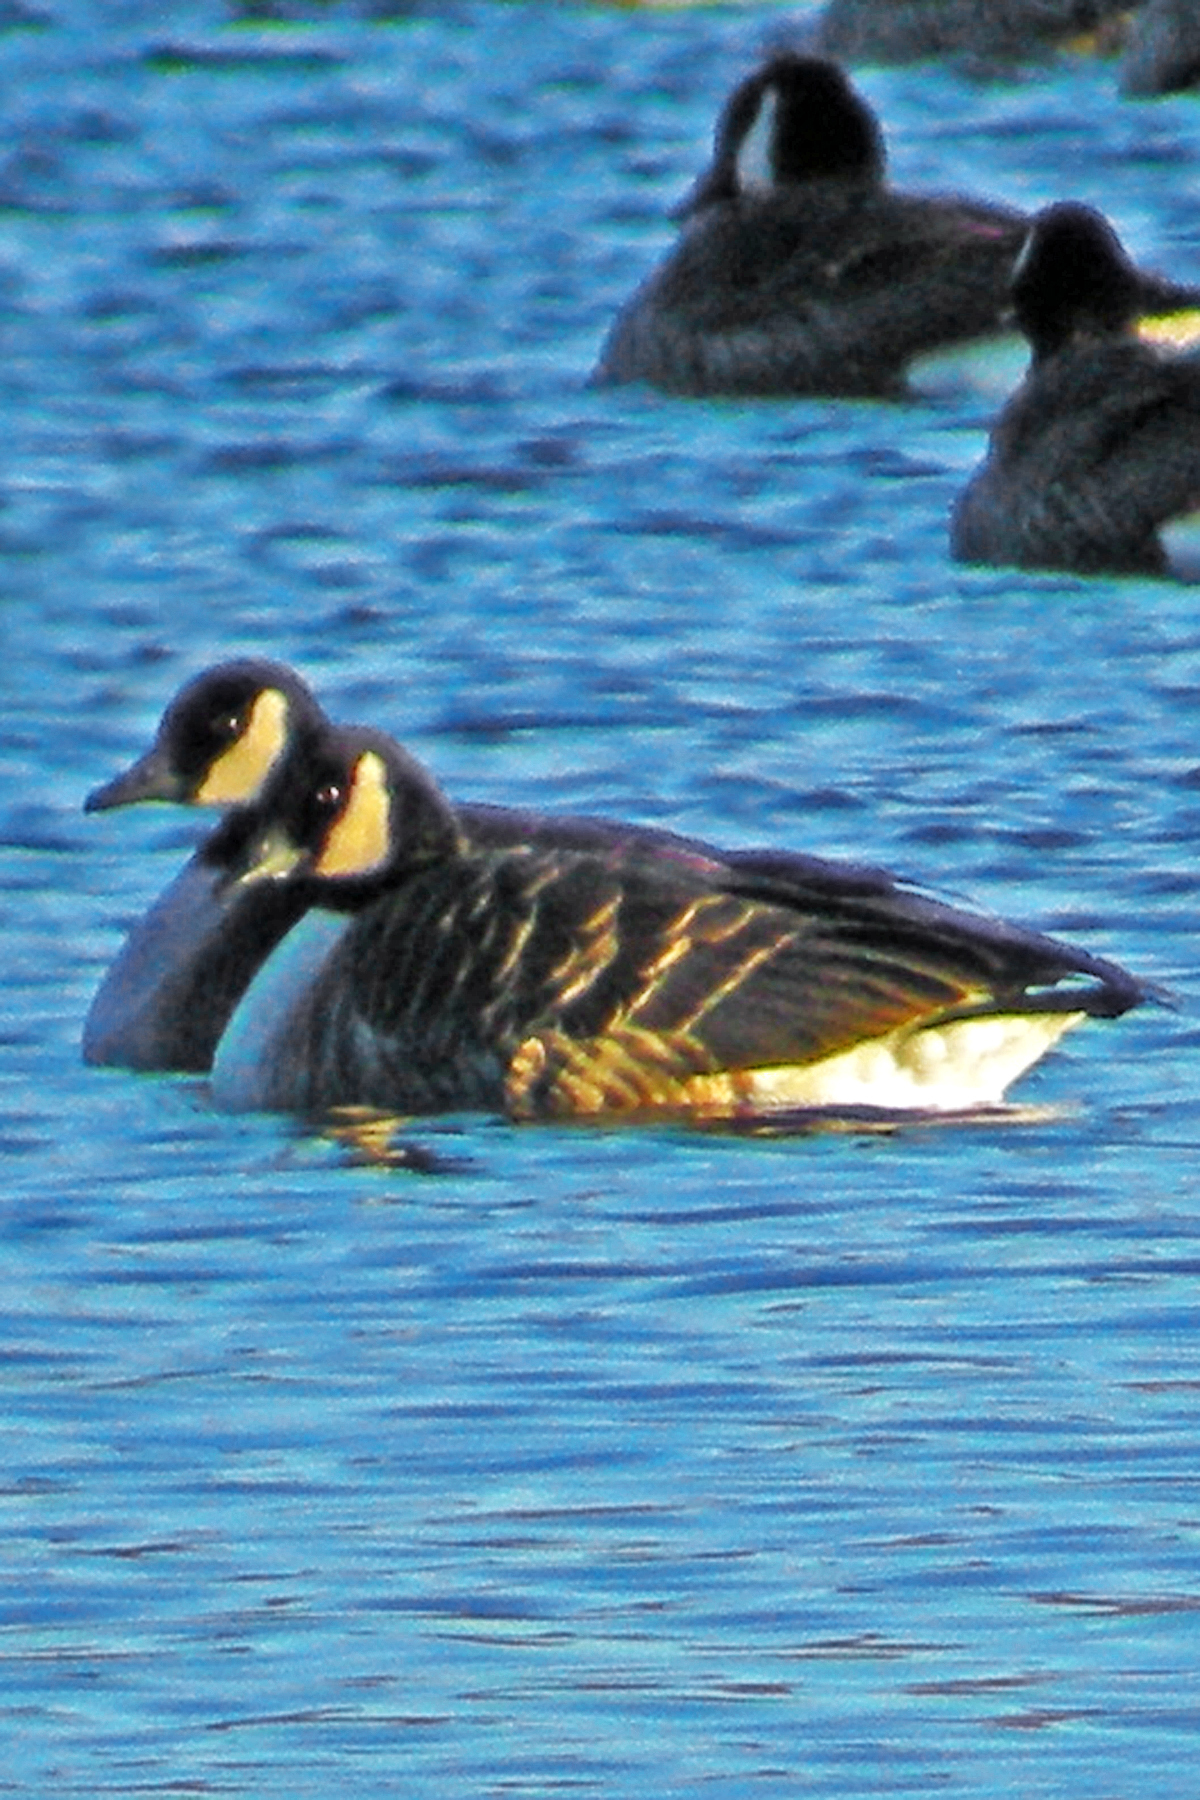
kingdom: Animalia
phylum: Chordata
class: Aves
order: Anseriformes
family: Anatidae
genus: Branta
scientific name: Branta canadensis
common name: Canada goose
